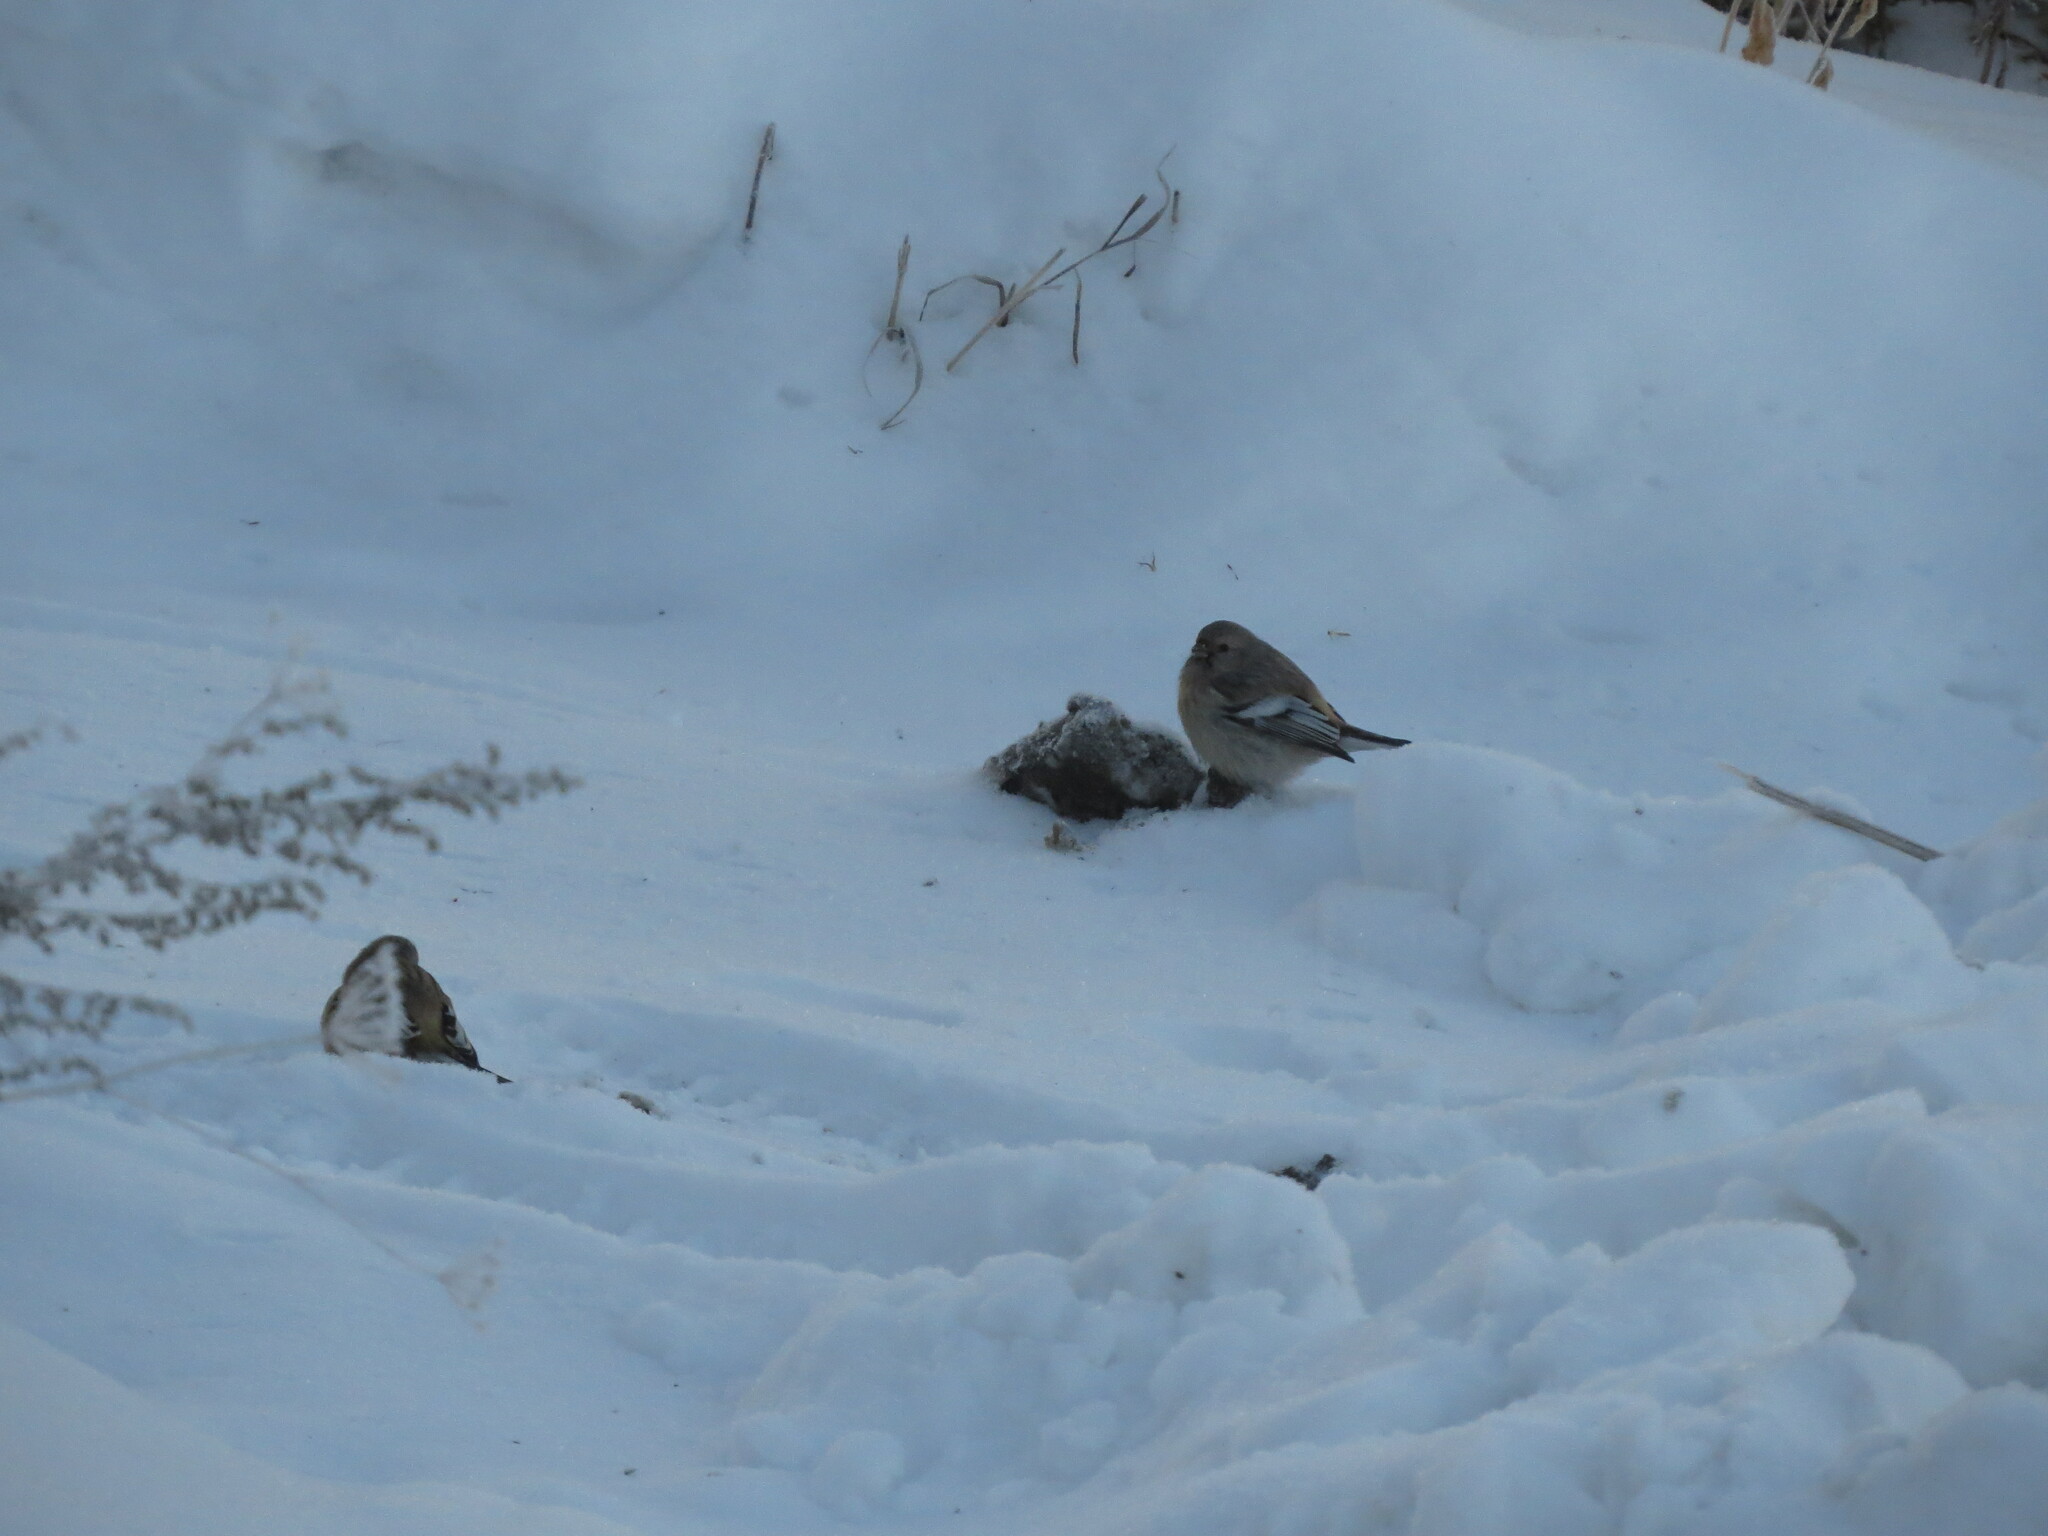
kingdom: Animalia
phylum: Chordata
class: Aves
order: Passeriformes
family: Fringillidae
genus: Carpodacus
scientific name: Carpodacus sibiricus
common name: Long-tailed rosefinch
